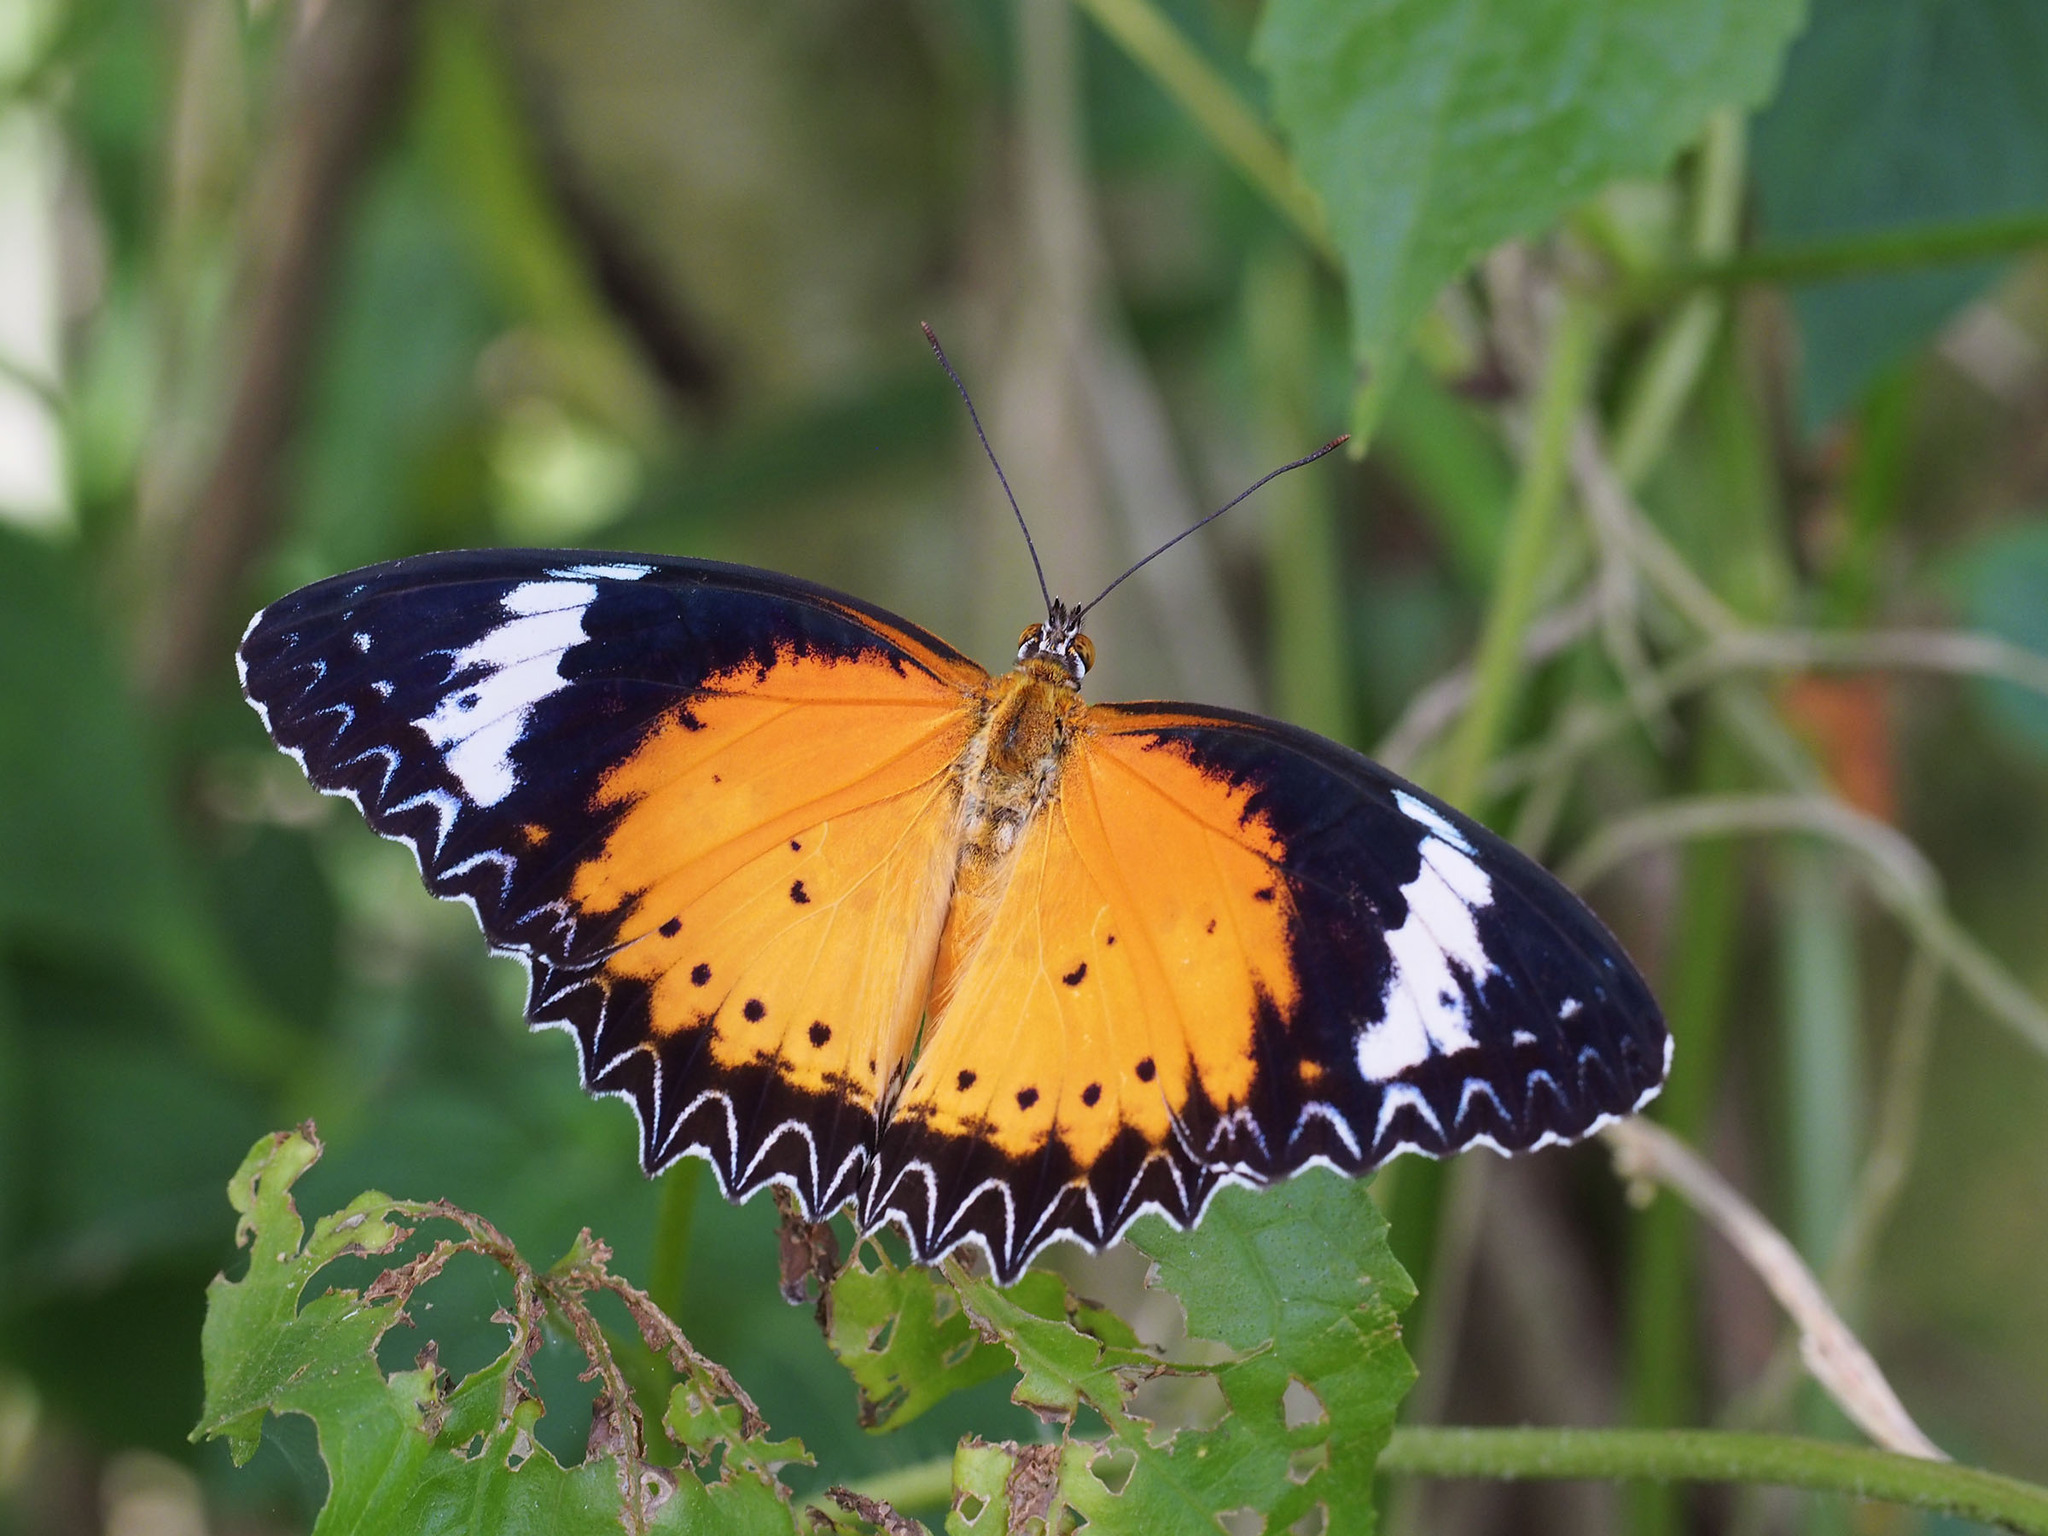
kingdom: Animalia
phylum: Arthropoda
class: Insecta
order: Lepidoptera
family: Nymphalidae
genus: Cethosia
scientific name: Cethosia cyane
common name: Leopard lacewing butterfly
